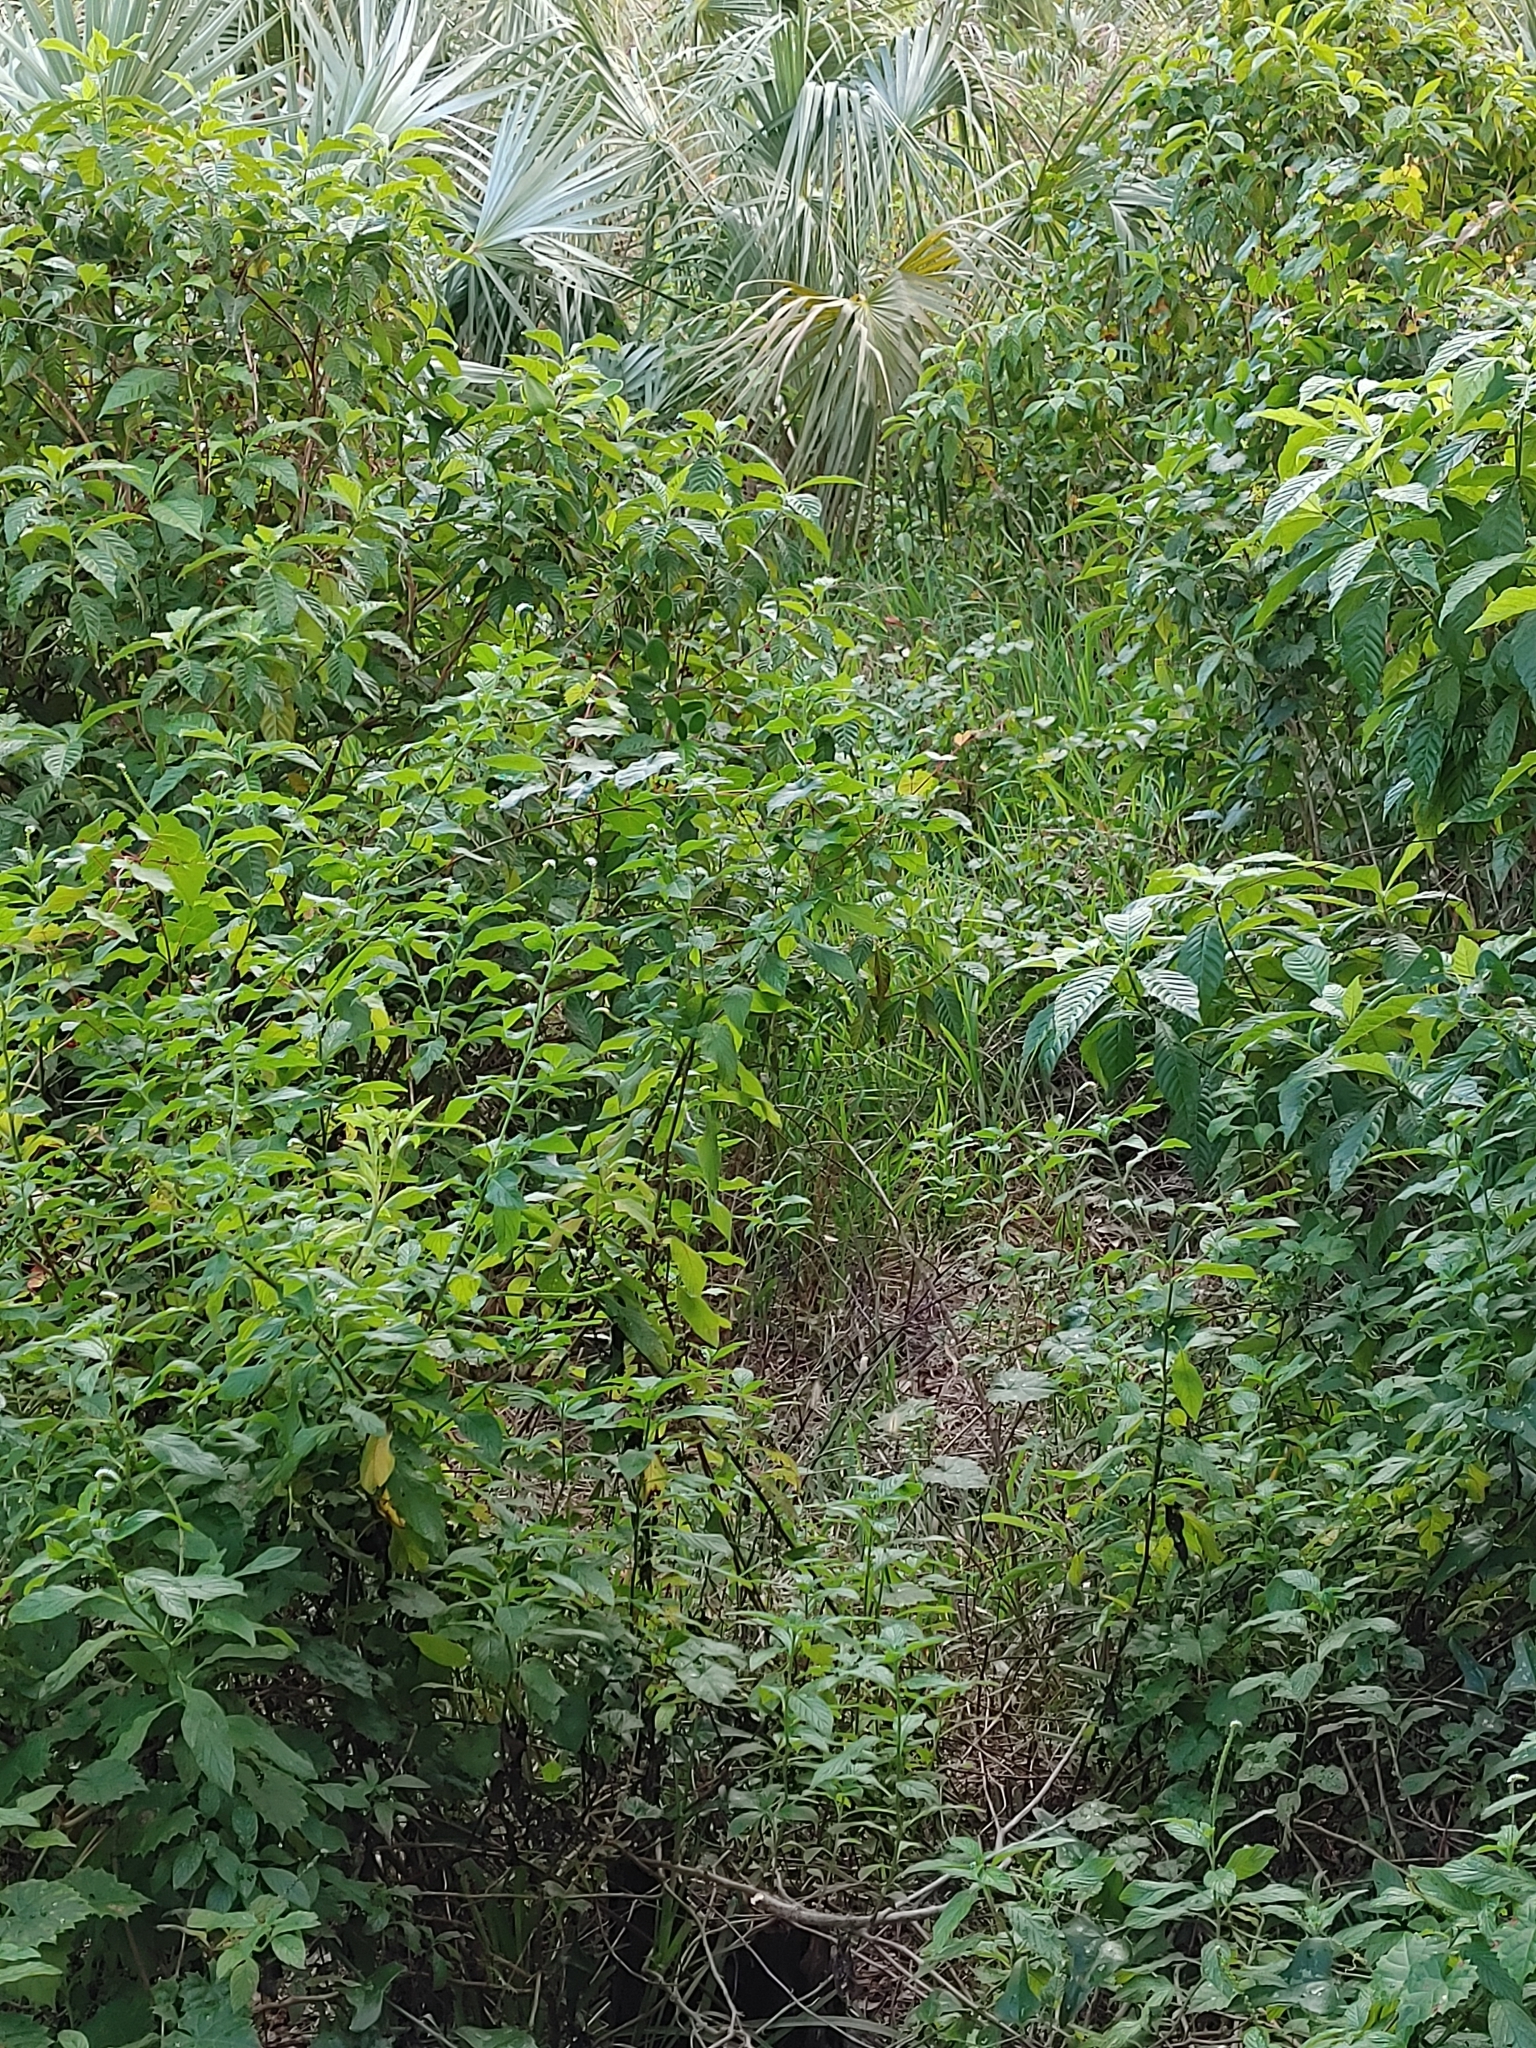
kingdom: Plantae
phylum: Tracheophyta
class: Magnoliopsida
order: Boraginales
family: Heliotropiaceae
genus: Heliotropium
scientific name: Heliotropium angiospermum
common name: Eye bright
